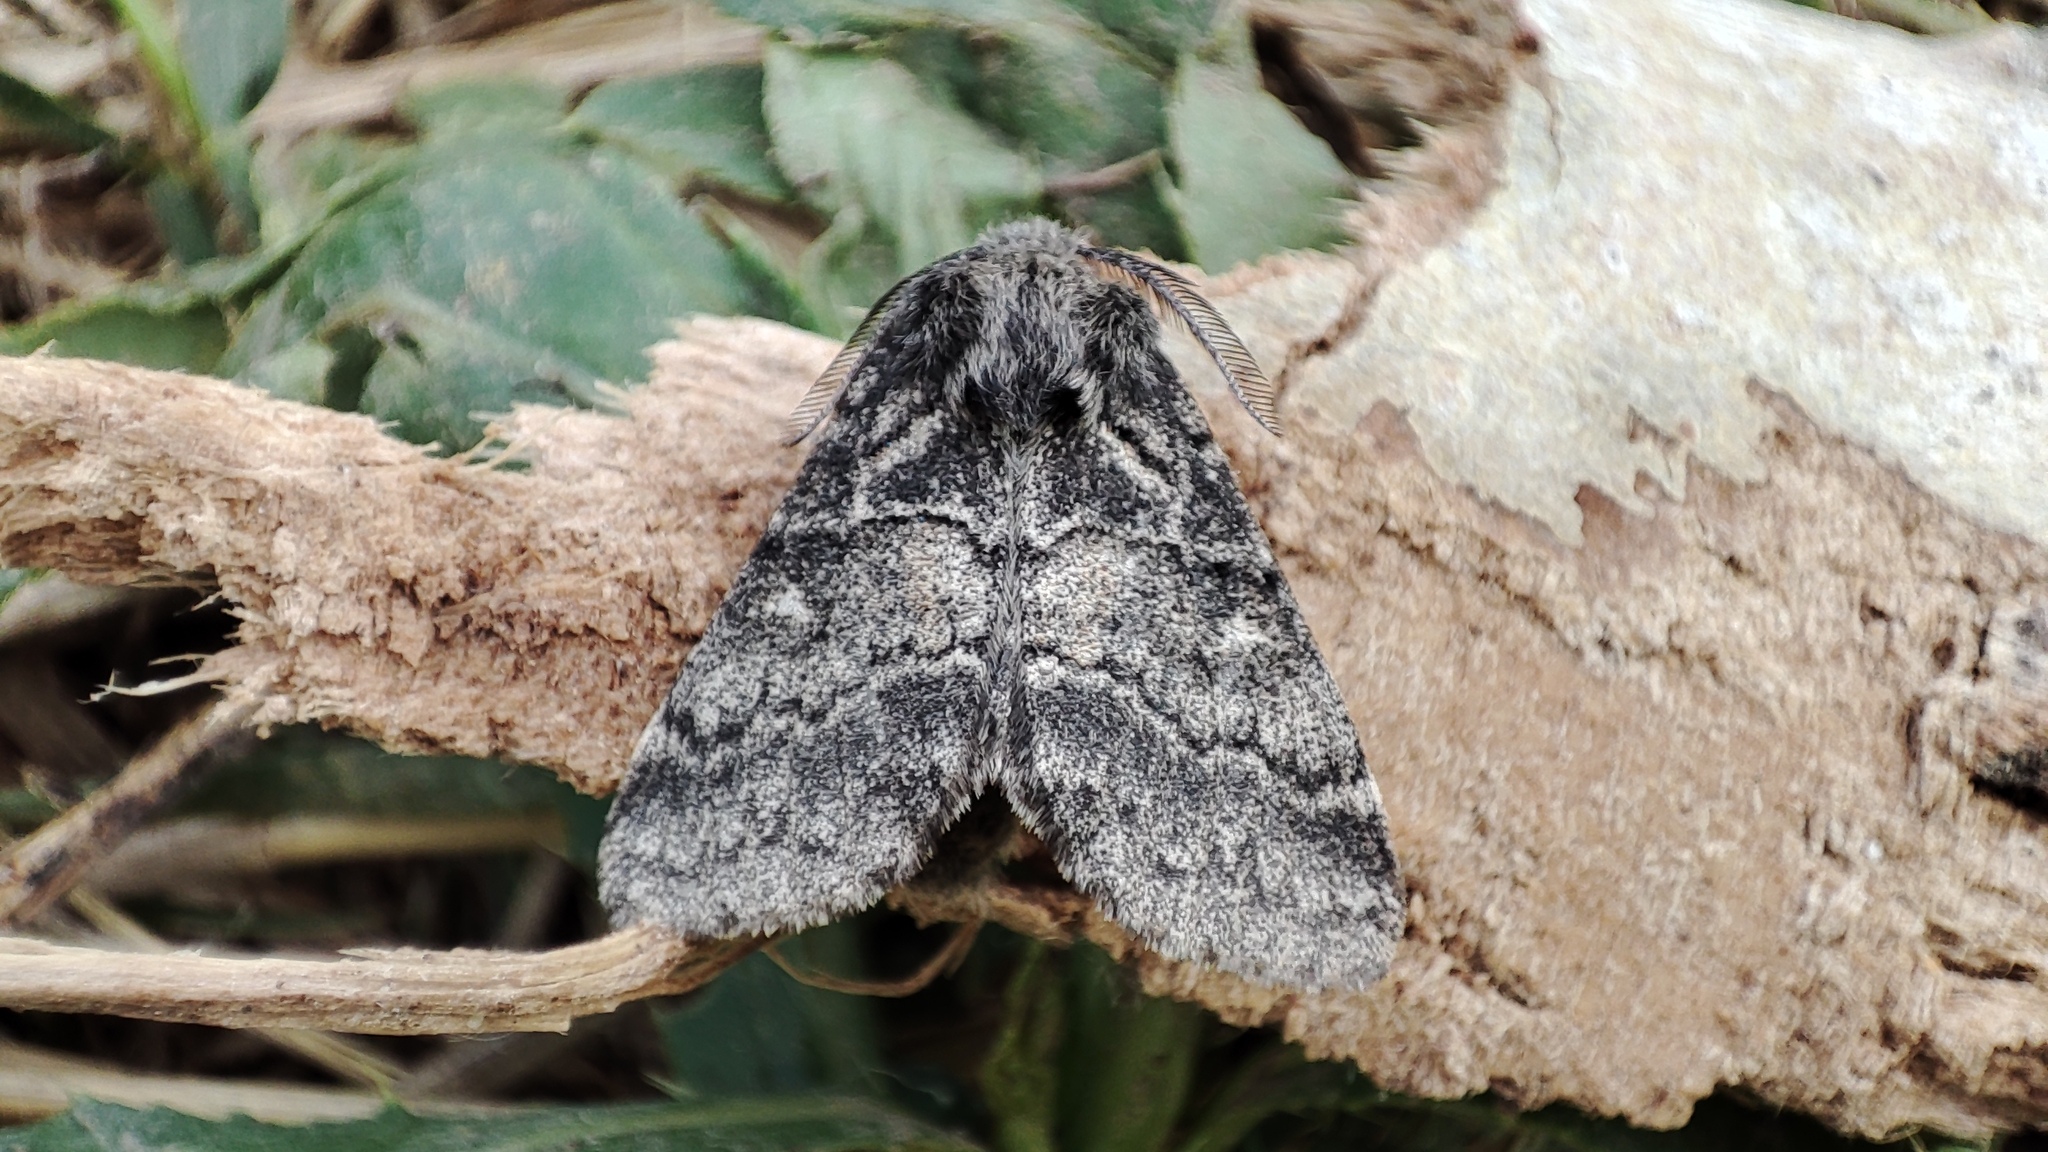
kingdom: Animalia
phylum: Arthropoda
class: Insecta
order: Lepidoptera
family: Notodontidae
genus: Gluphisia
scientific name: Gluphisia crenata
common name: Dusky marbled brown
